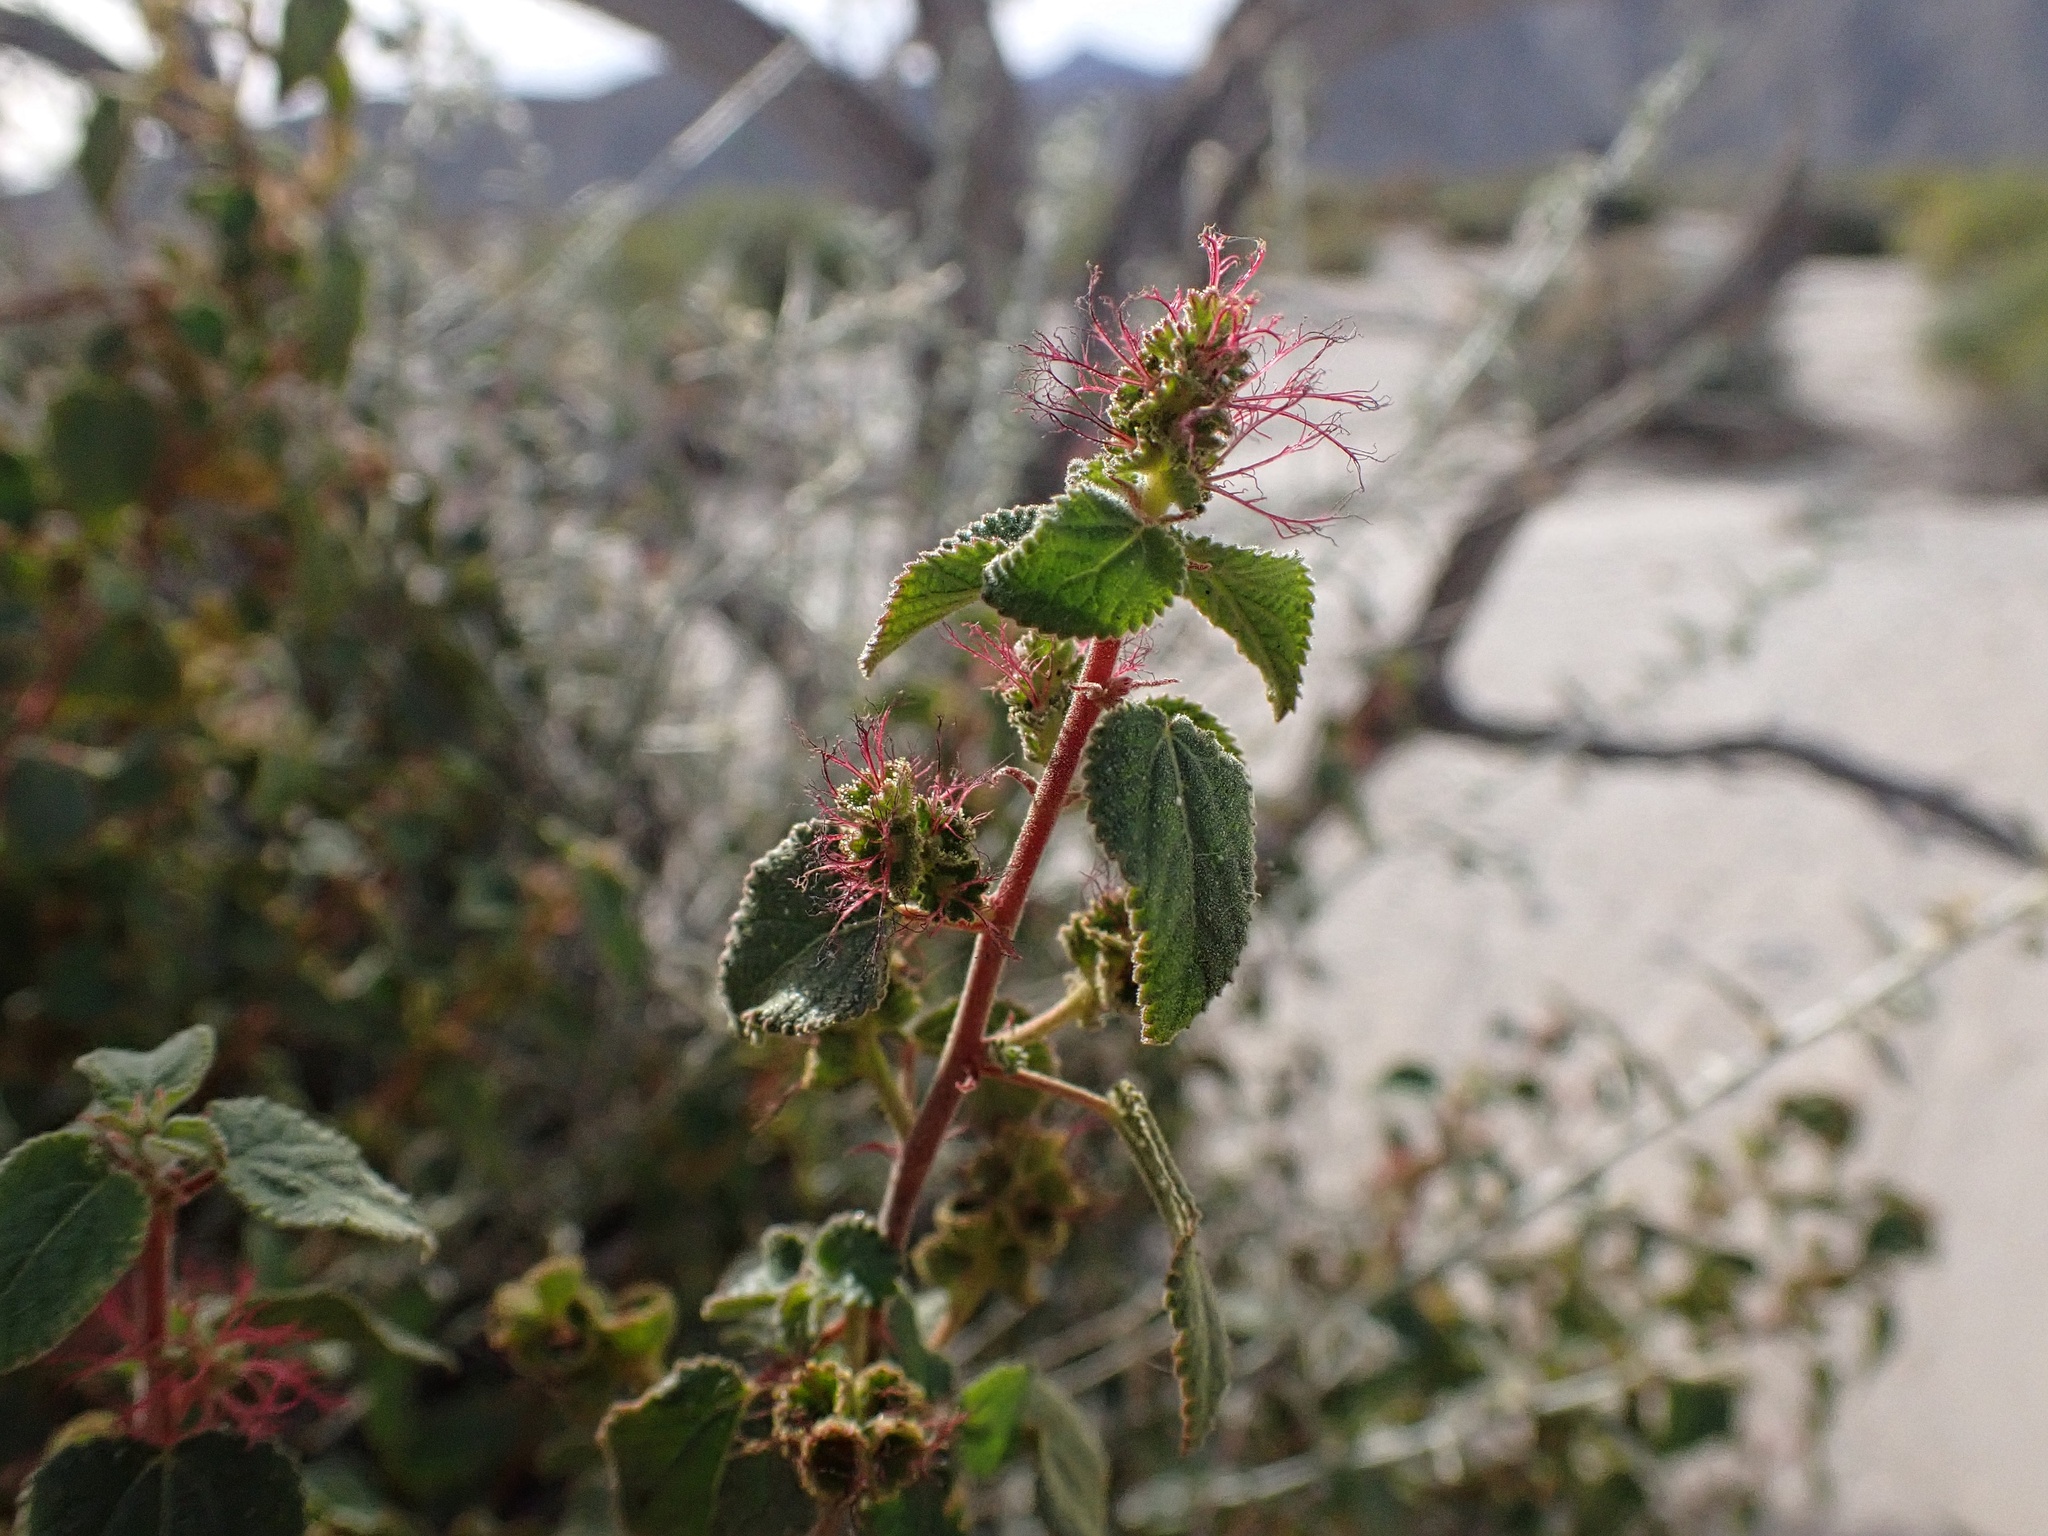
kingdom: Plantae
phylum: Tracheophyta
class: Magnoliopsida
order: Malpighiales
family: Euphorbiaceae
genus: Acalypha
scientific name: Acalypha californica
